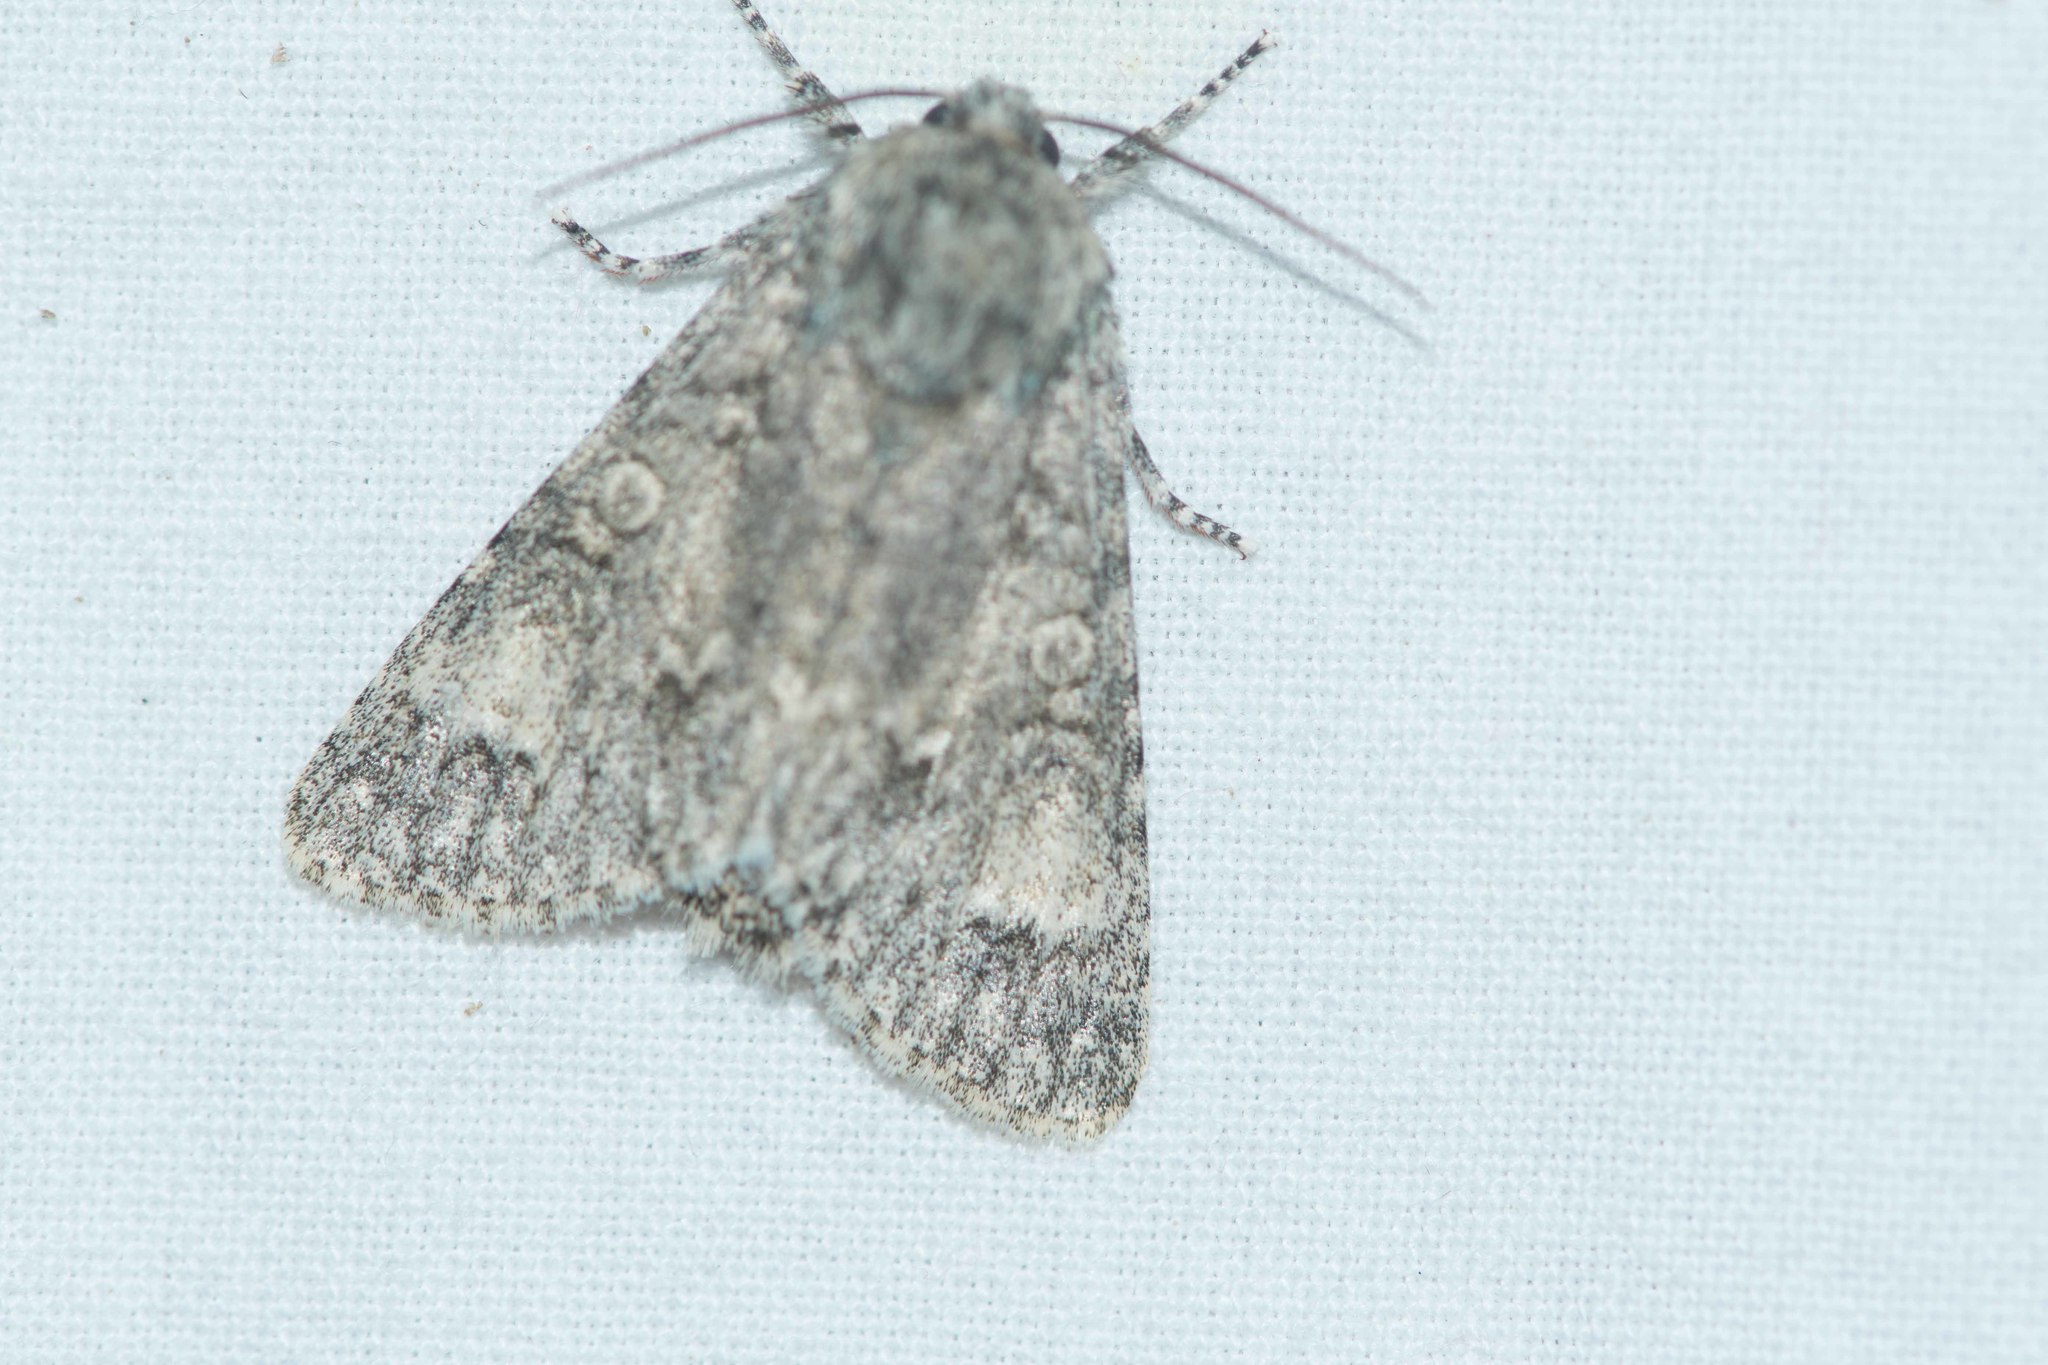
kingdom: Animalia
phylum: Arthropoda
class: Insecta
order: Lepidoptera
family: Noctuidae
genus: Acronicta
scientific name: Acronicta aceris
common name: Sycamore
